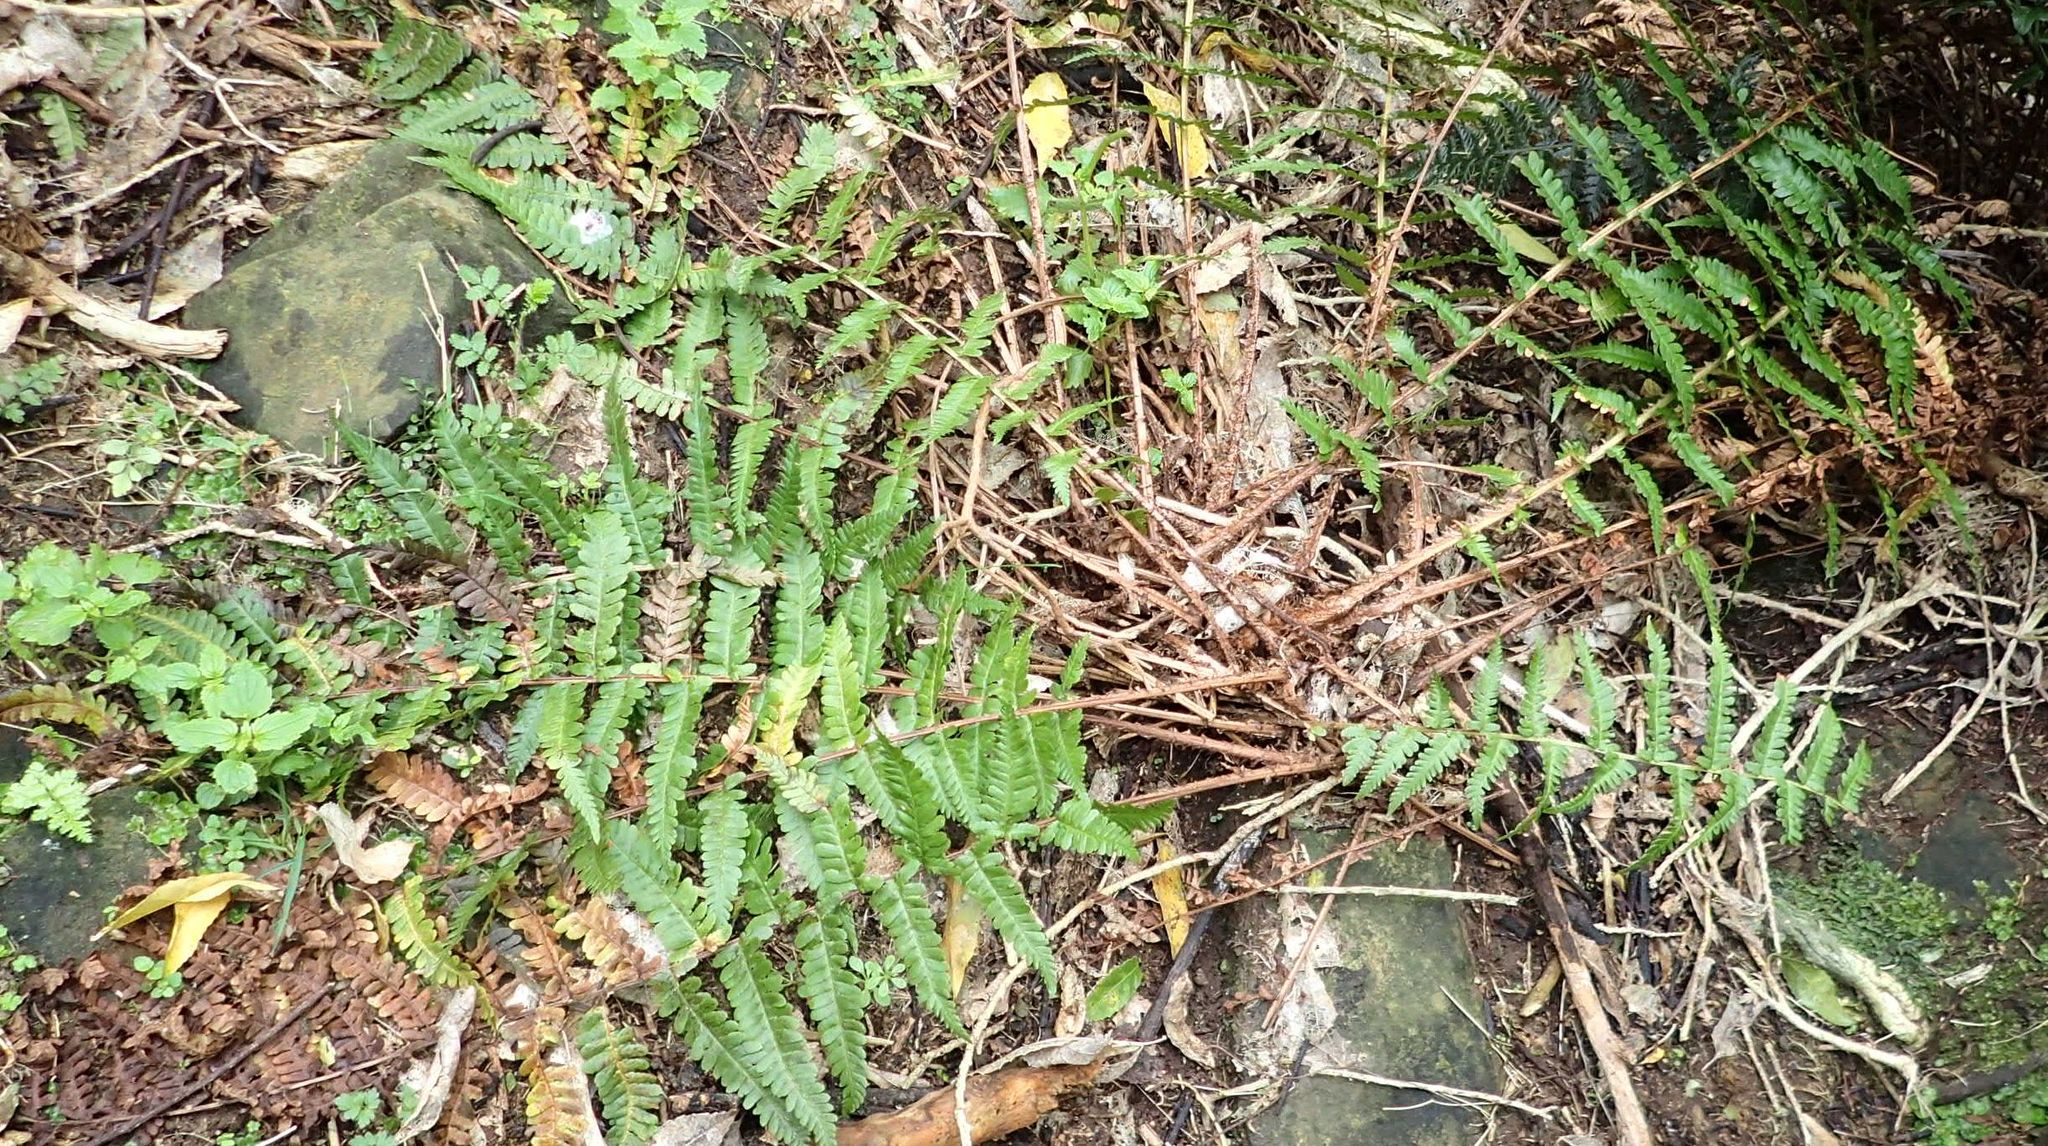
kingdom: Plantae
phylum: Tracheophyta
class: Polypodiopsida
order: Polypodiales
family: Dryopteridaceae
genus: Dryopteris
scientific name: Dryopteris filix-mas
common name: Male fern
